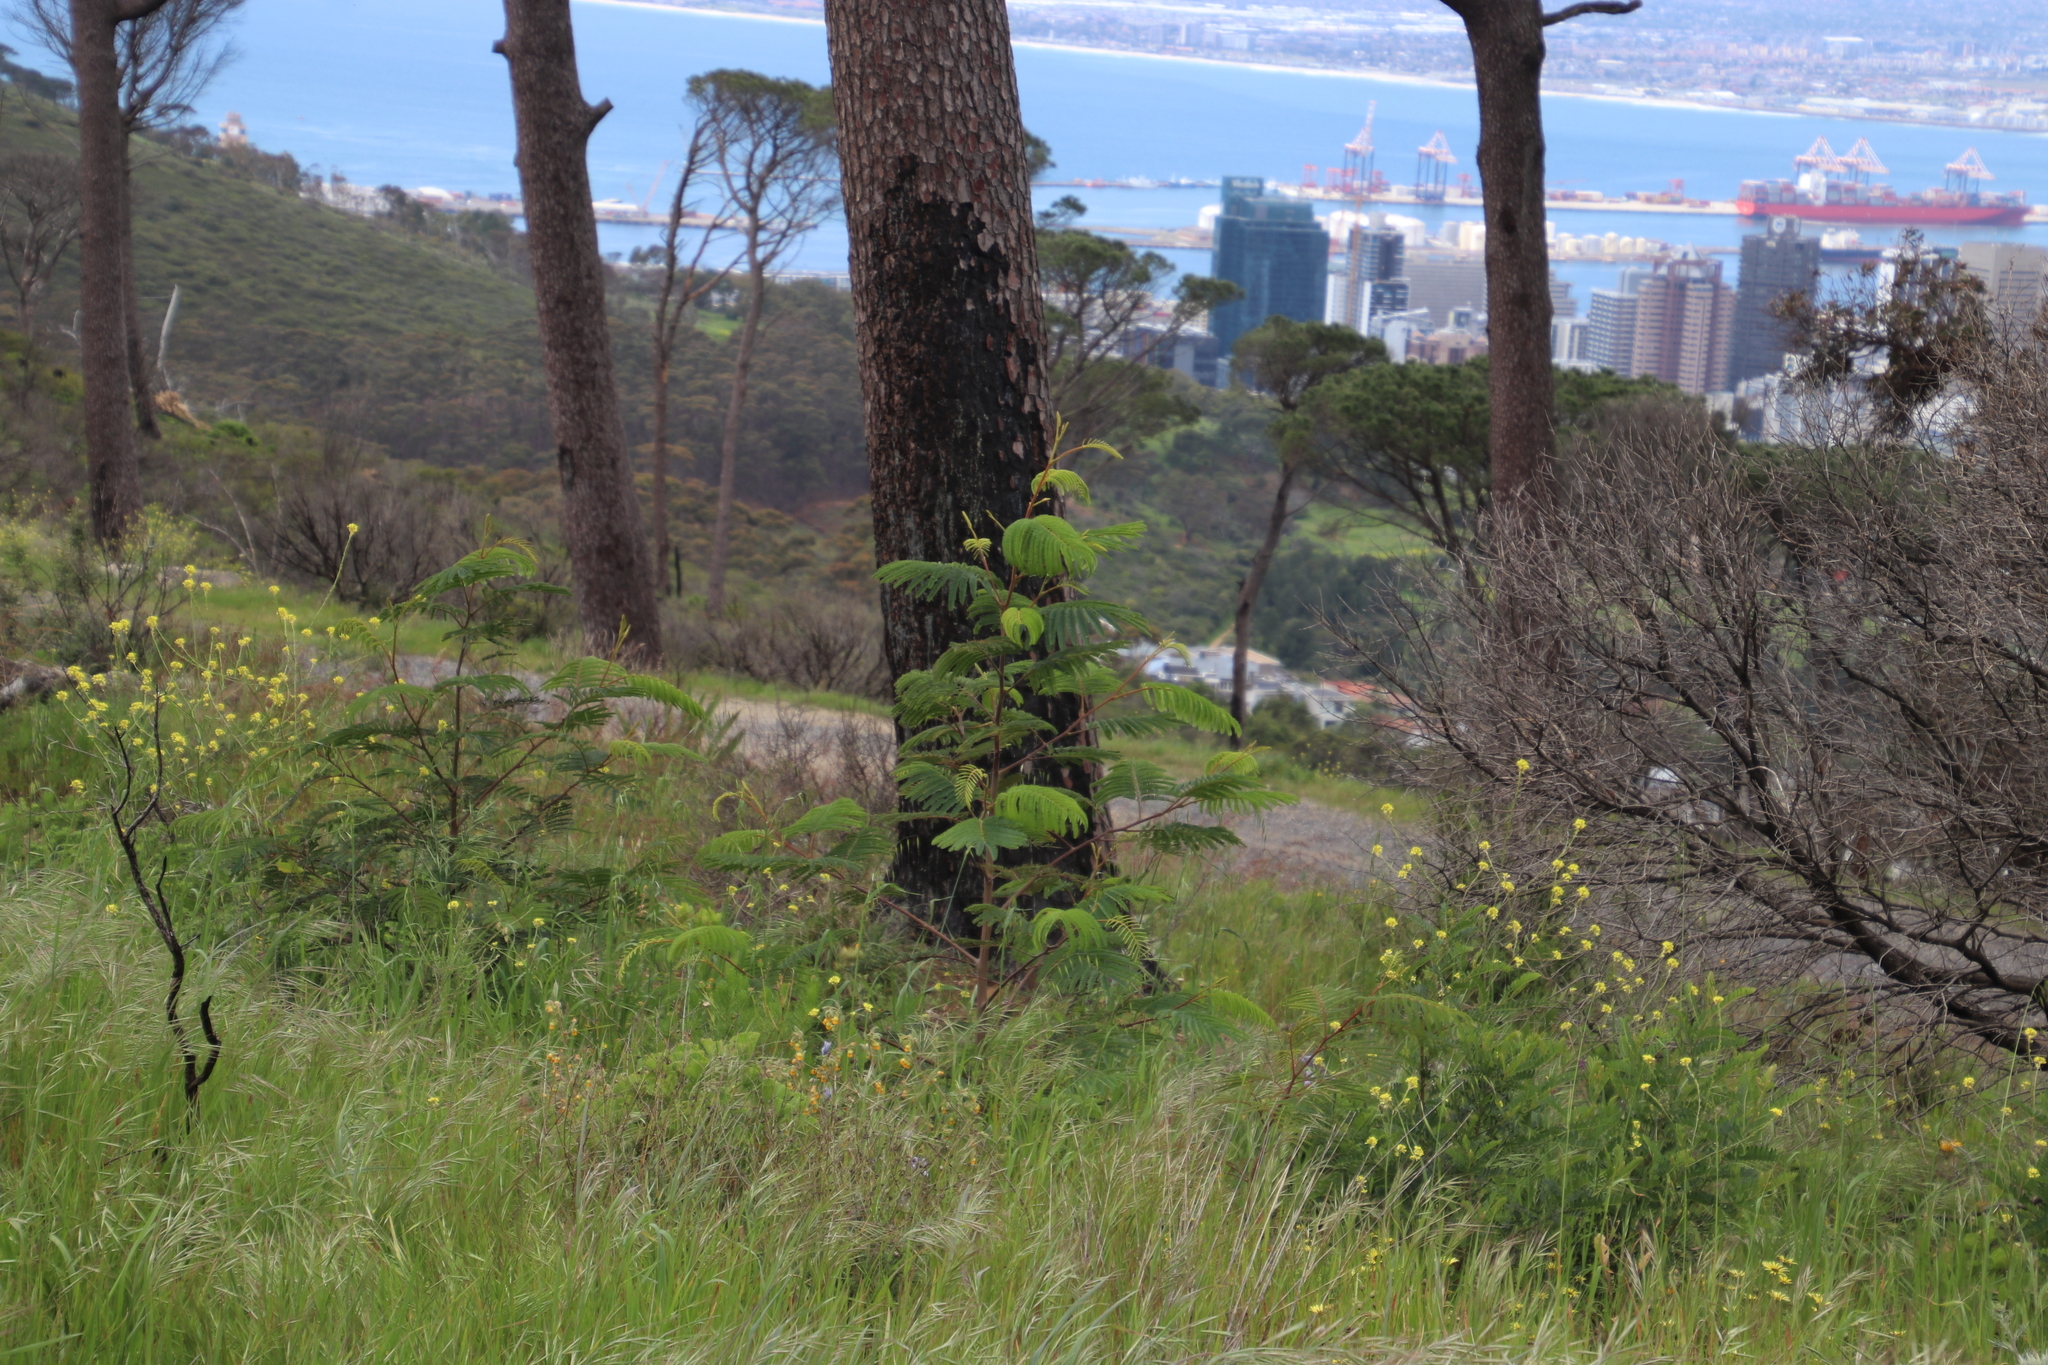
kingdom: Plantae
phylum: Tracheophyta
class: Magnoliopsida
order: Fabales
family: Fabaceae
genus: Paraserianthes
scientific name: Paraserianthes lophantha
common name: Plume albizia
